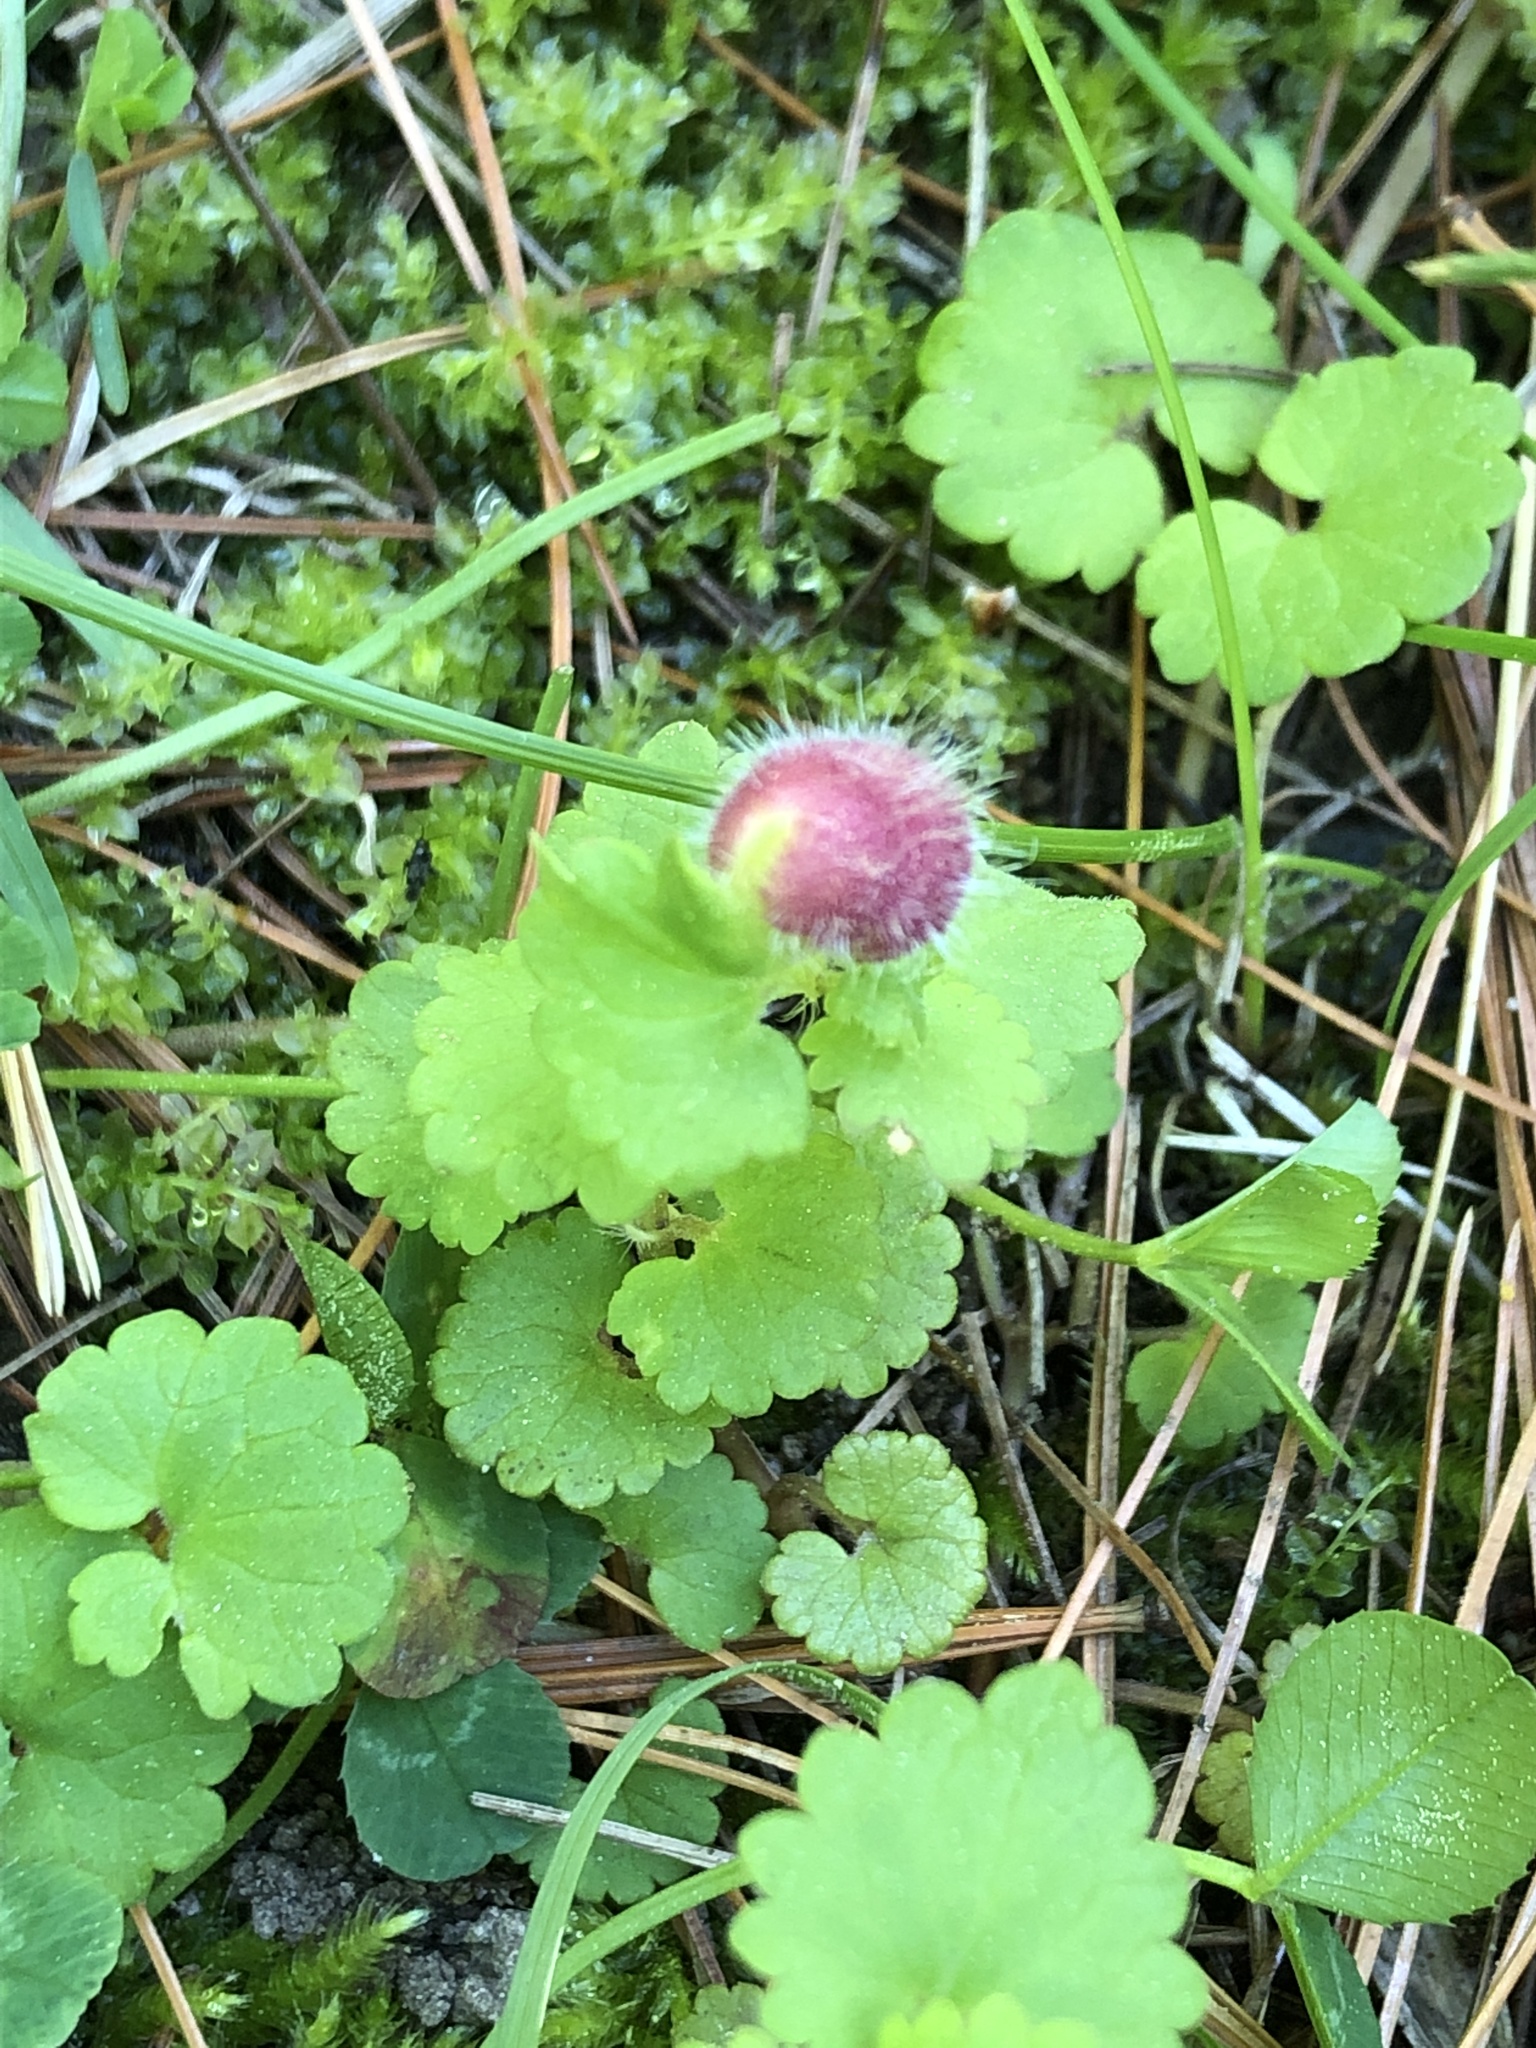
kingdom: Animalia
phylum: Arthropoda
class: Insecta
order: Hymenoptera
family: Cynipidae
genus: Liposthenes
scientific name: Liposthenes glechomae
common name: Gall wasp
